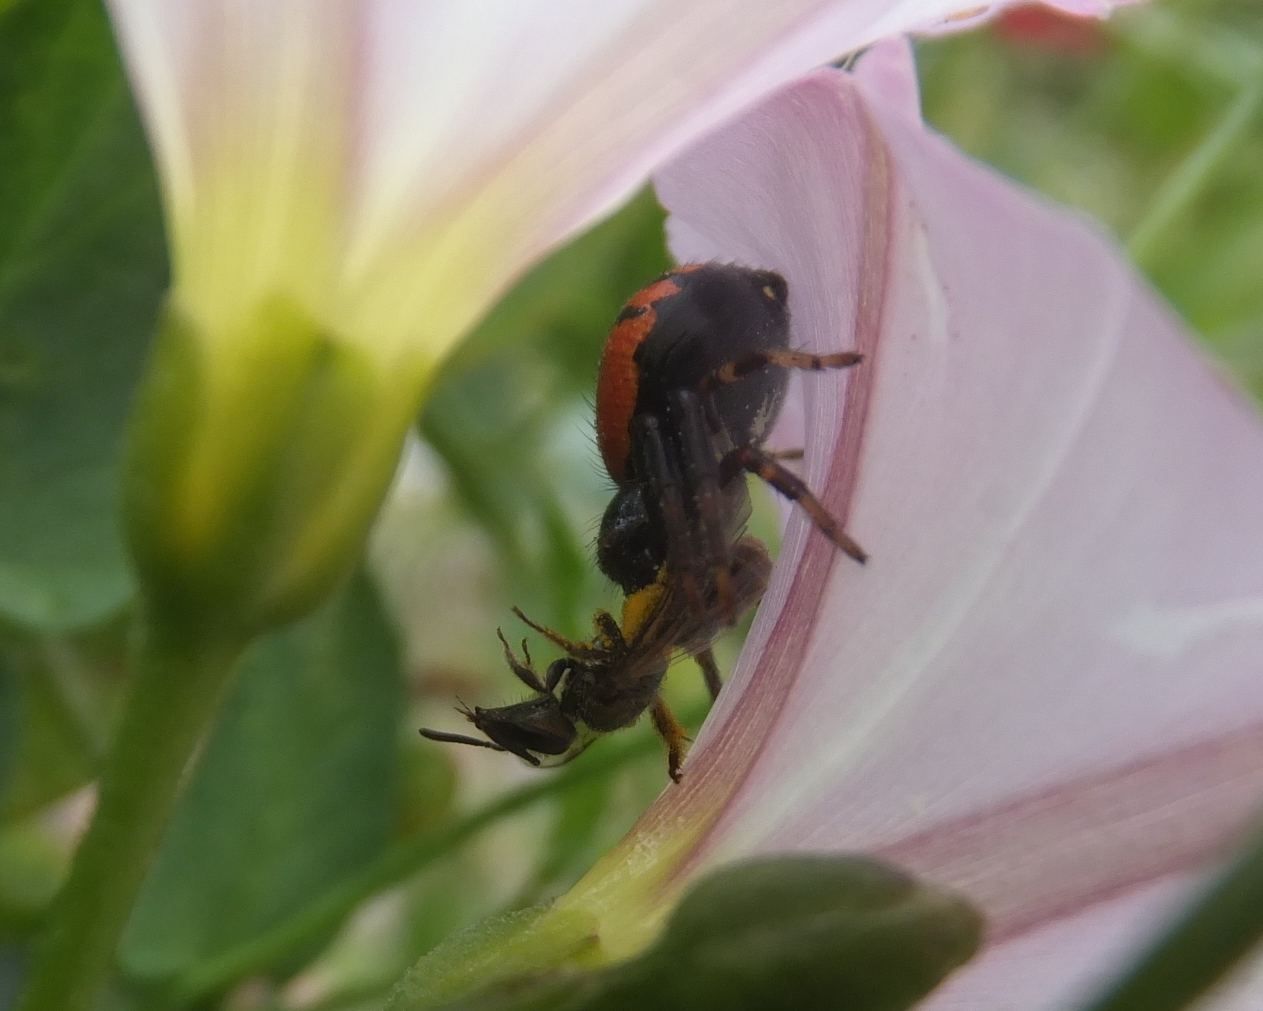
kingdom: Animalia
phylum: Arthropoda
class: Arachnida
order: Araneae
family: Thomisidae
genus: Synema
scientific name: Synema globosum
